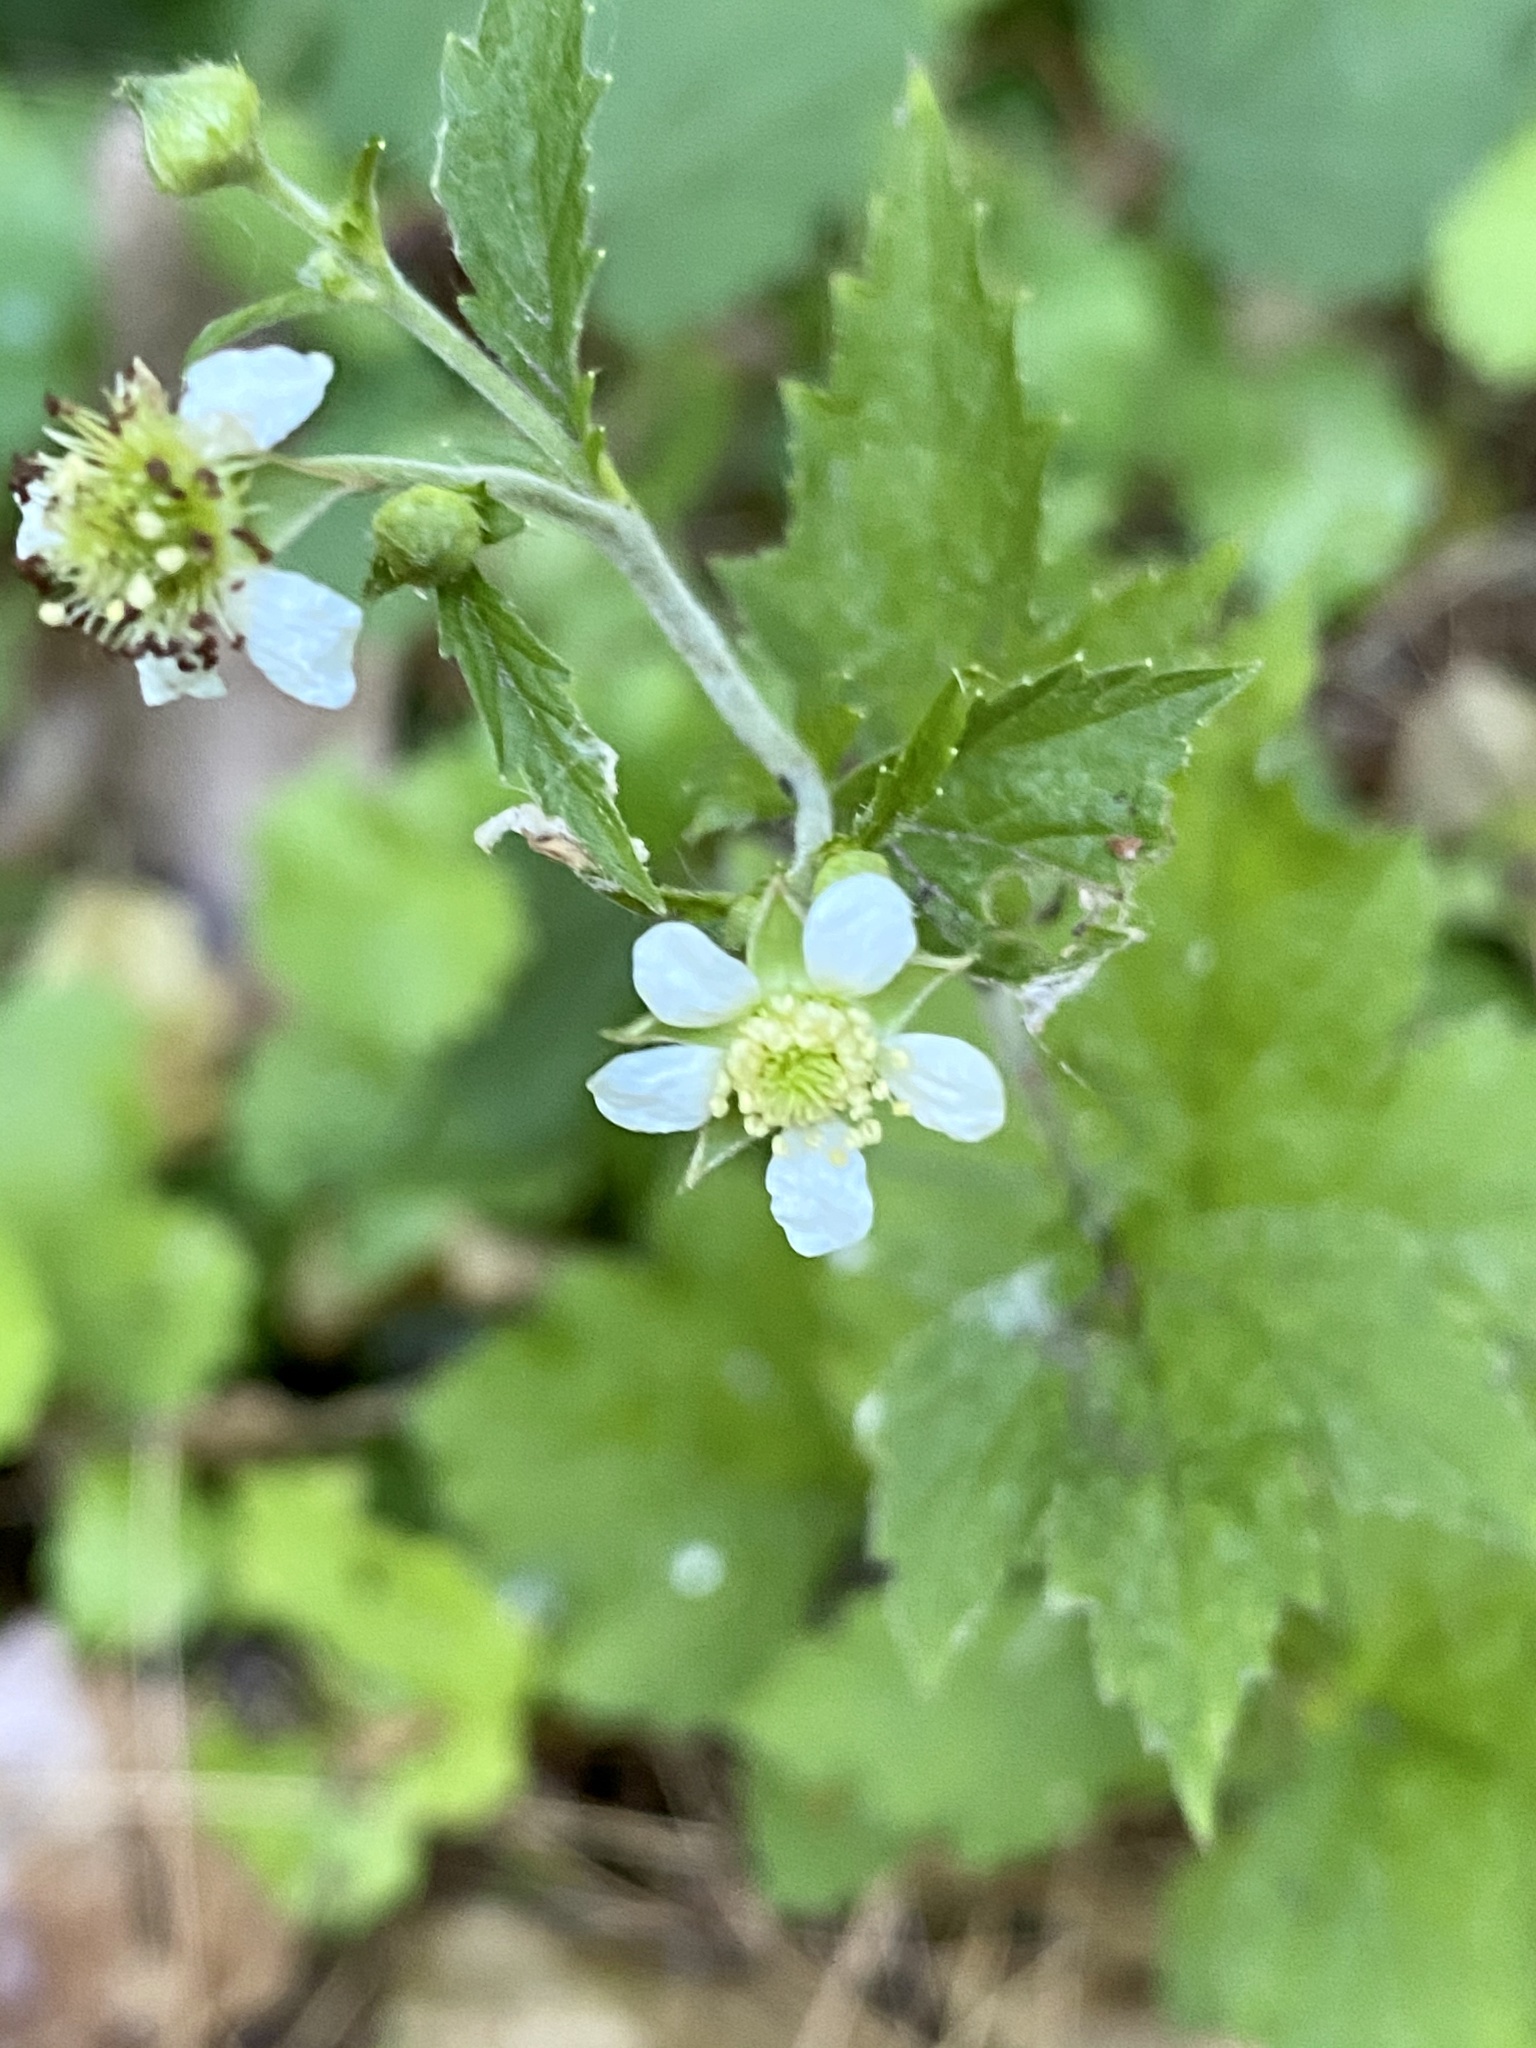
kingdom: Plantae
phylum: Tracheophyta
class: Magnoliopsida
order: Rosales
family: Rosaceae
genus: Geum
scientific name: Geum canadense
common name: White avens
